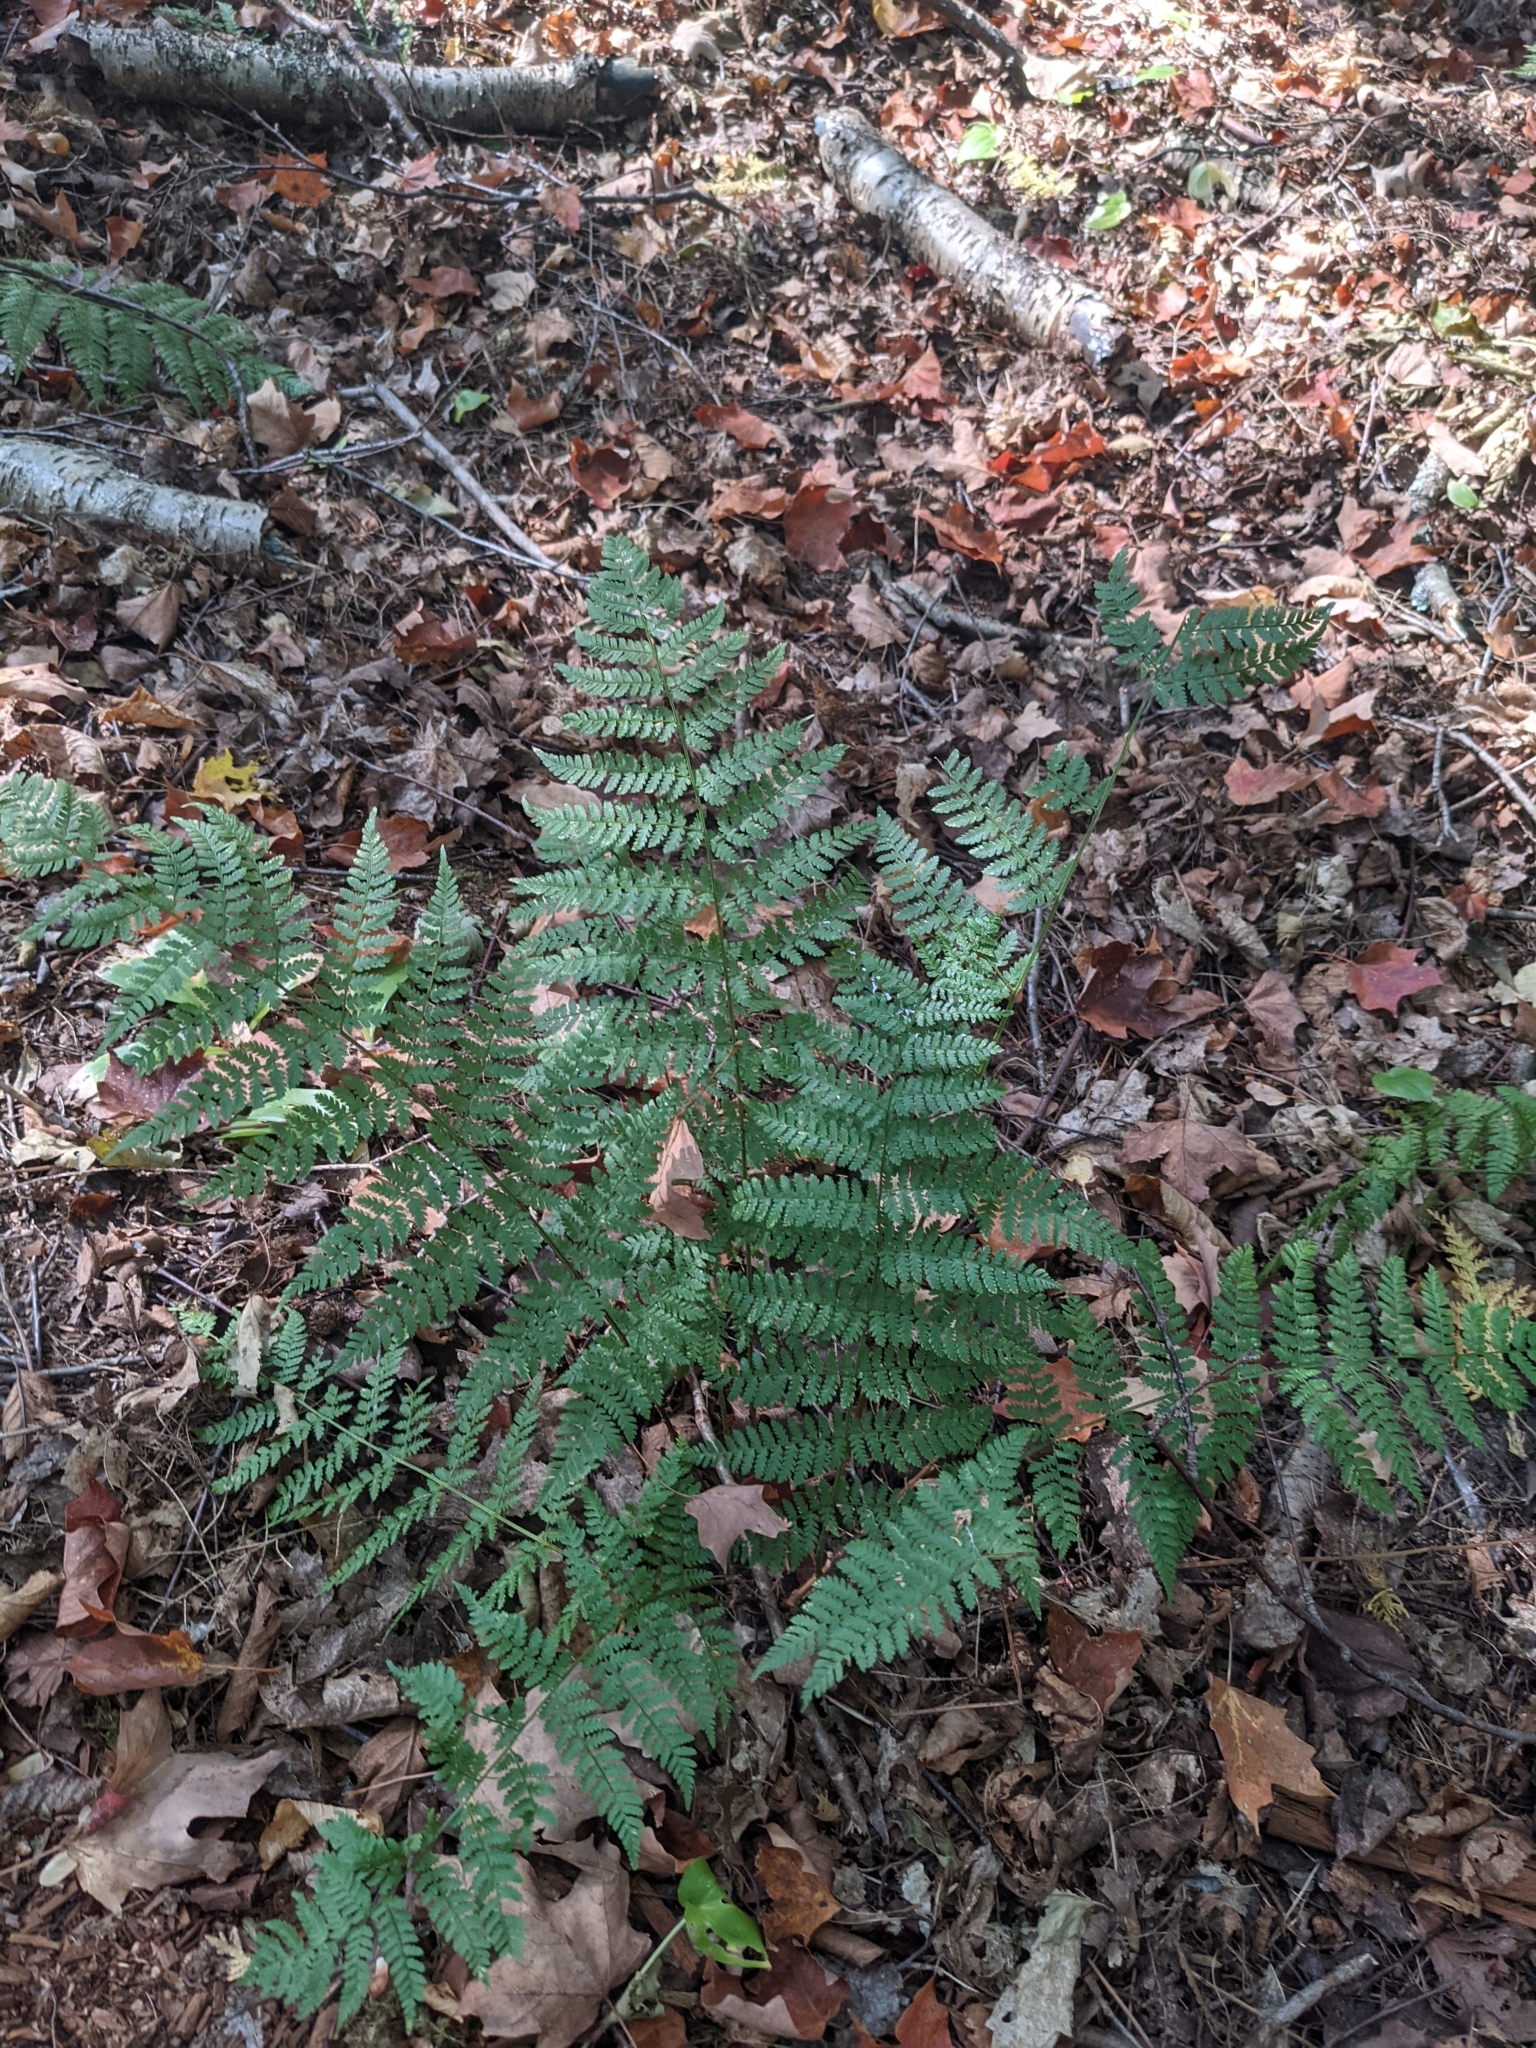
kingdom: Plantae
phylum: Tracheophyta
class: Polypodiopsida
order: Polypodiales
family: Dryopteridaceae
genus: Dryopteris
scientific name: Dryopteris intermedia
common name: Evergreen wood fern
